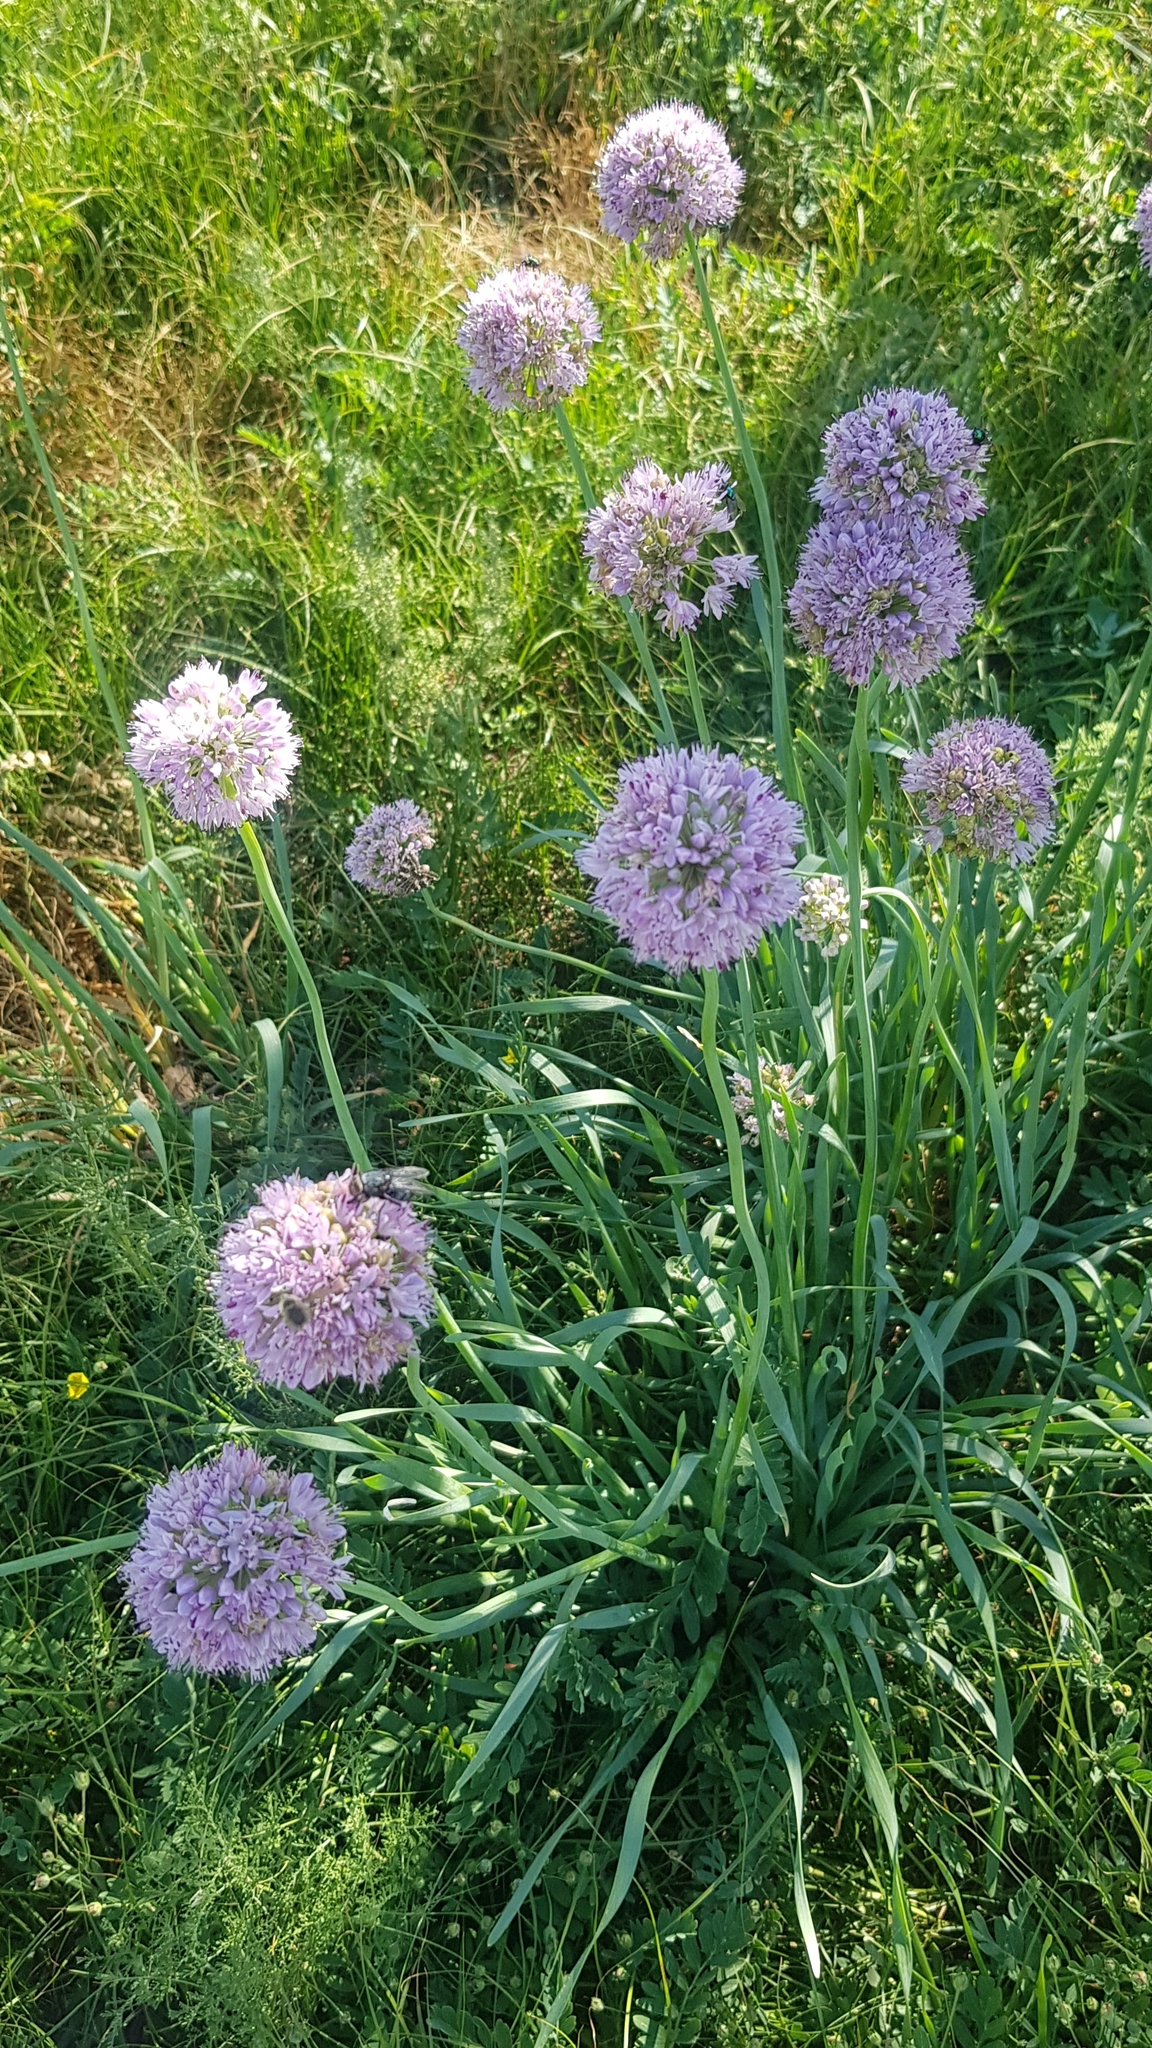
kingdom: Plantae
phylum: Tracheophyta
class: Liliopsida
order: Asparagales
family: Amaryllidaceae
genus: Allium
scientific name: Allium senescens
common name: German garlic
